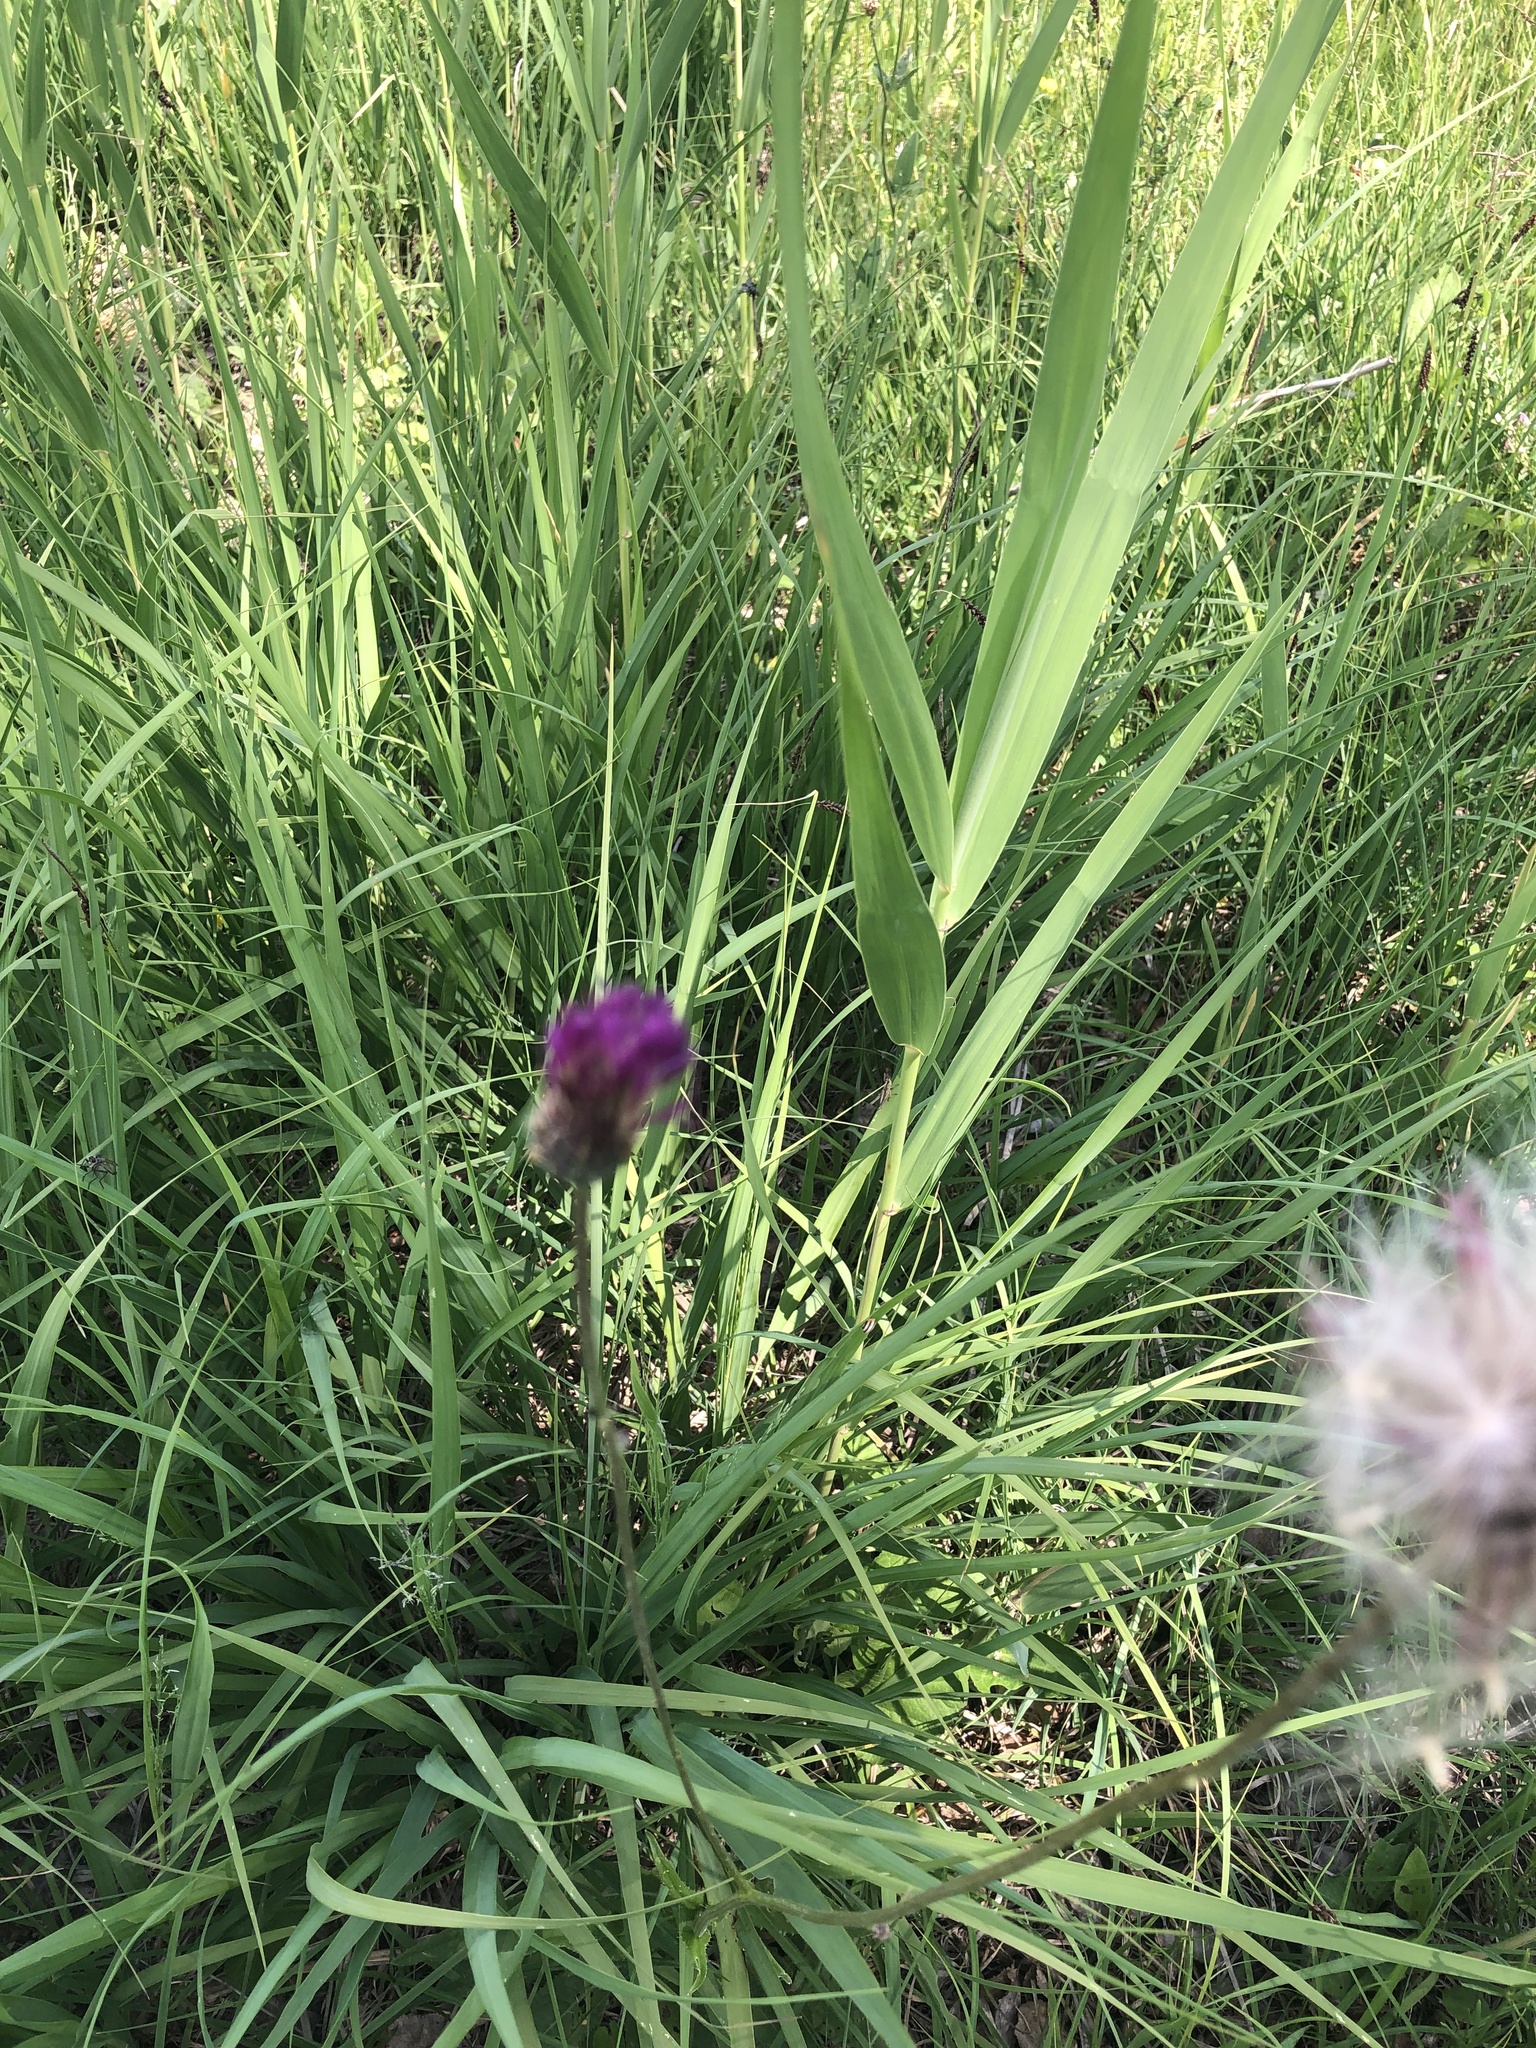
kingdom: Plantae
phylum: Tracheophyta
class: Magnoliopsida
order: Asterales
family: Asteraceae
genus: Cirsium
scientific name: Cirsium pannonicum
